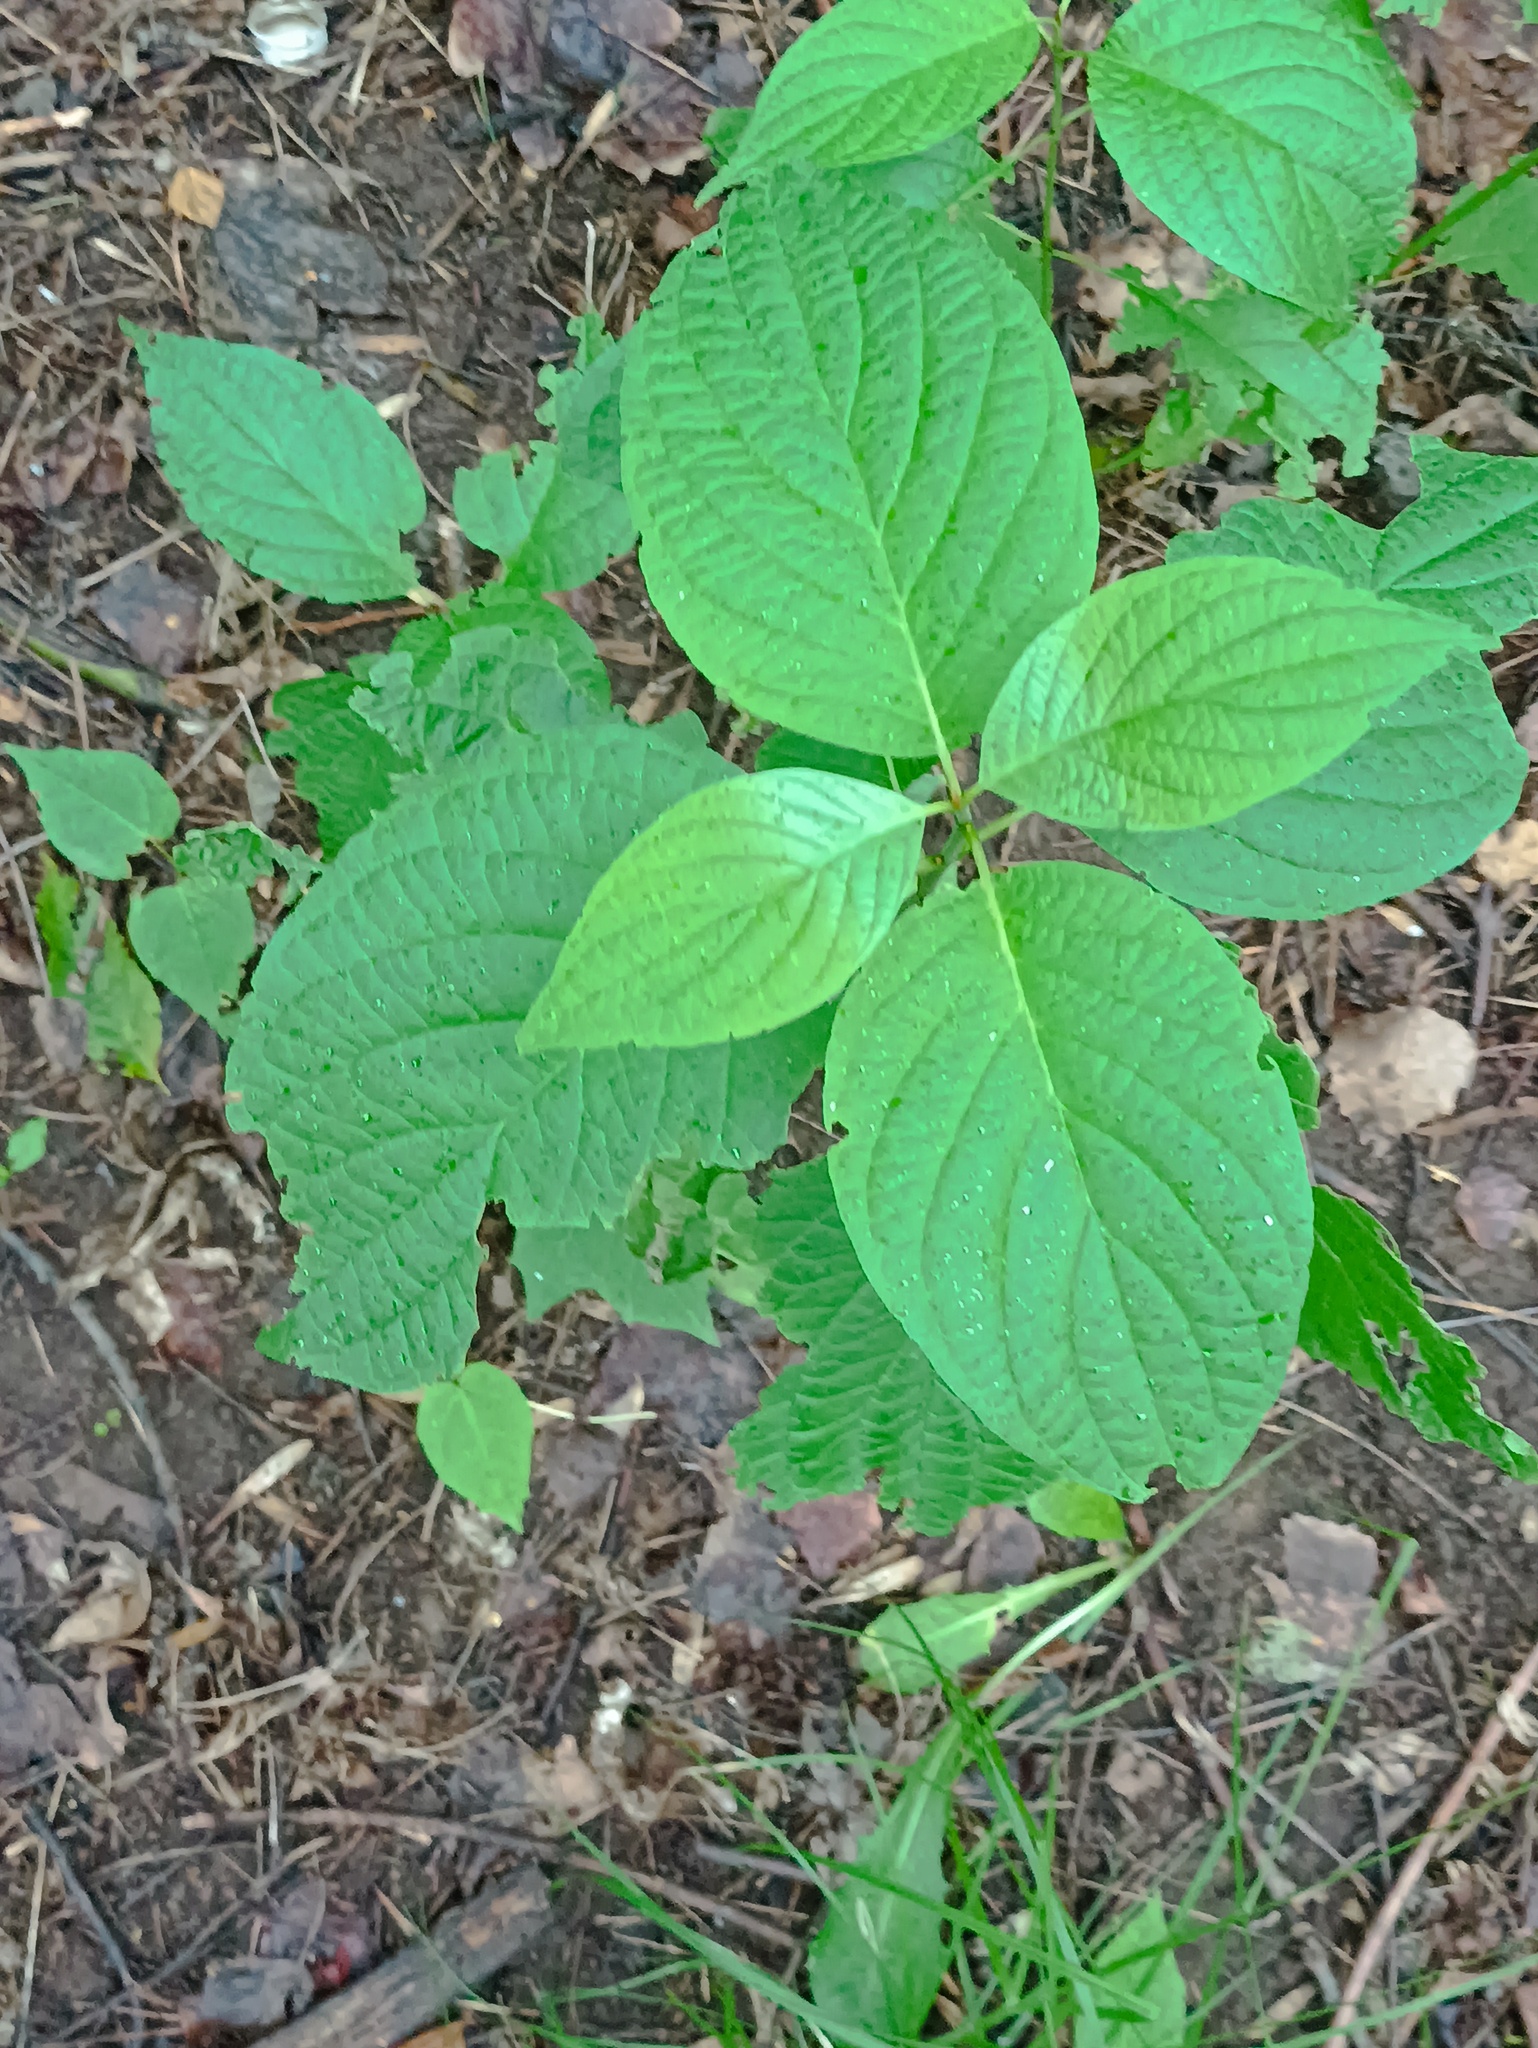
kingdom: Plantae
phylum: Tracheophyta
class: Magnoliopsida
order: Cornales
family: Cornaceae
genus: Cornus
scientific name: Cornus alba
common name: White dogwood
